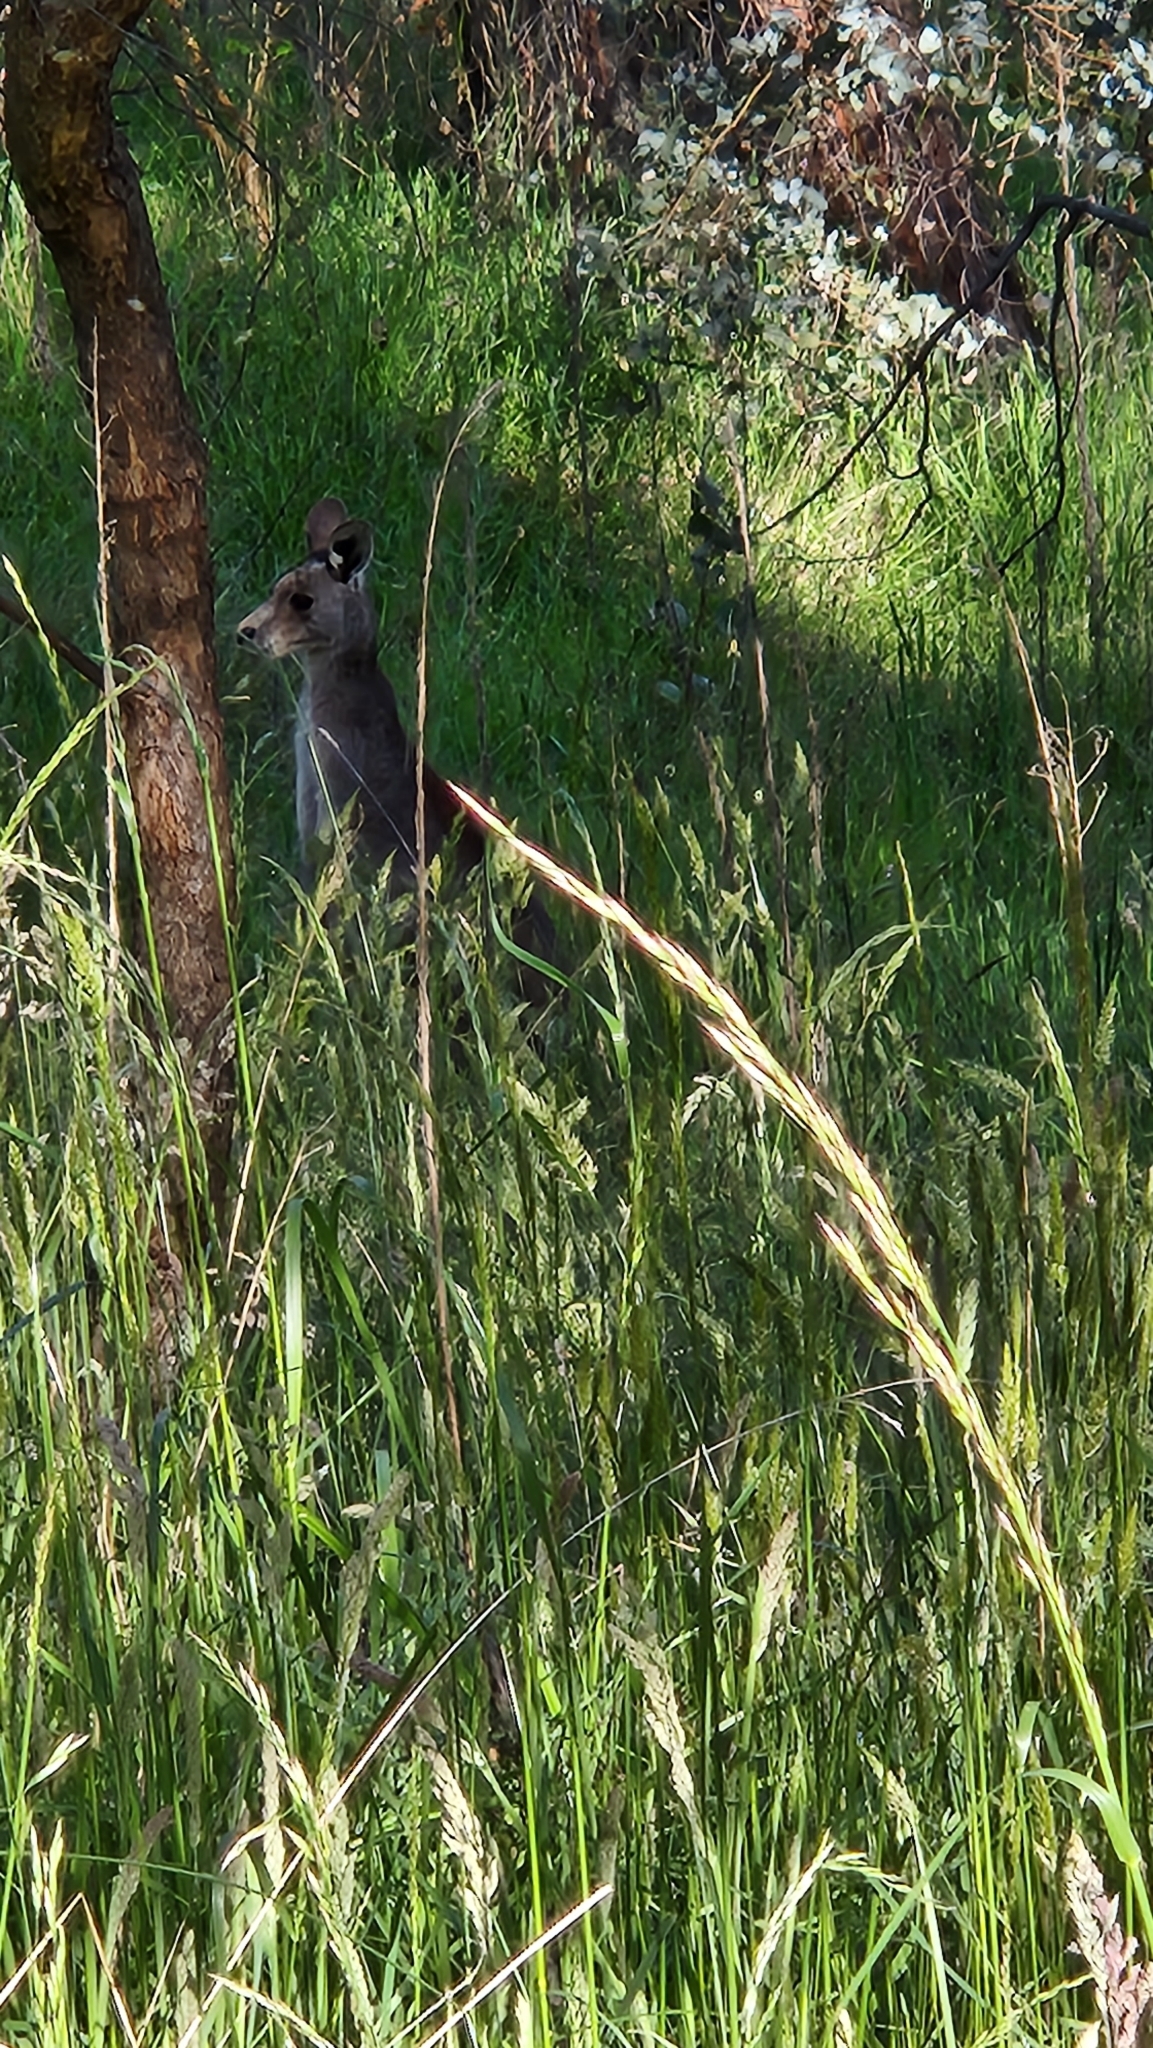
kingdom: Animalia
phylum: Chordata
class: Mammalia
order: Diprotodontia
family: Macropodidae
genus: Macropus
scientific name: Macropus giganteus
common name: Eastern grey kangaroo
